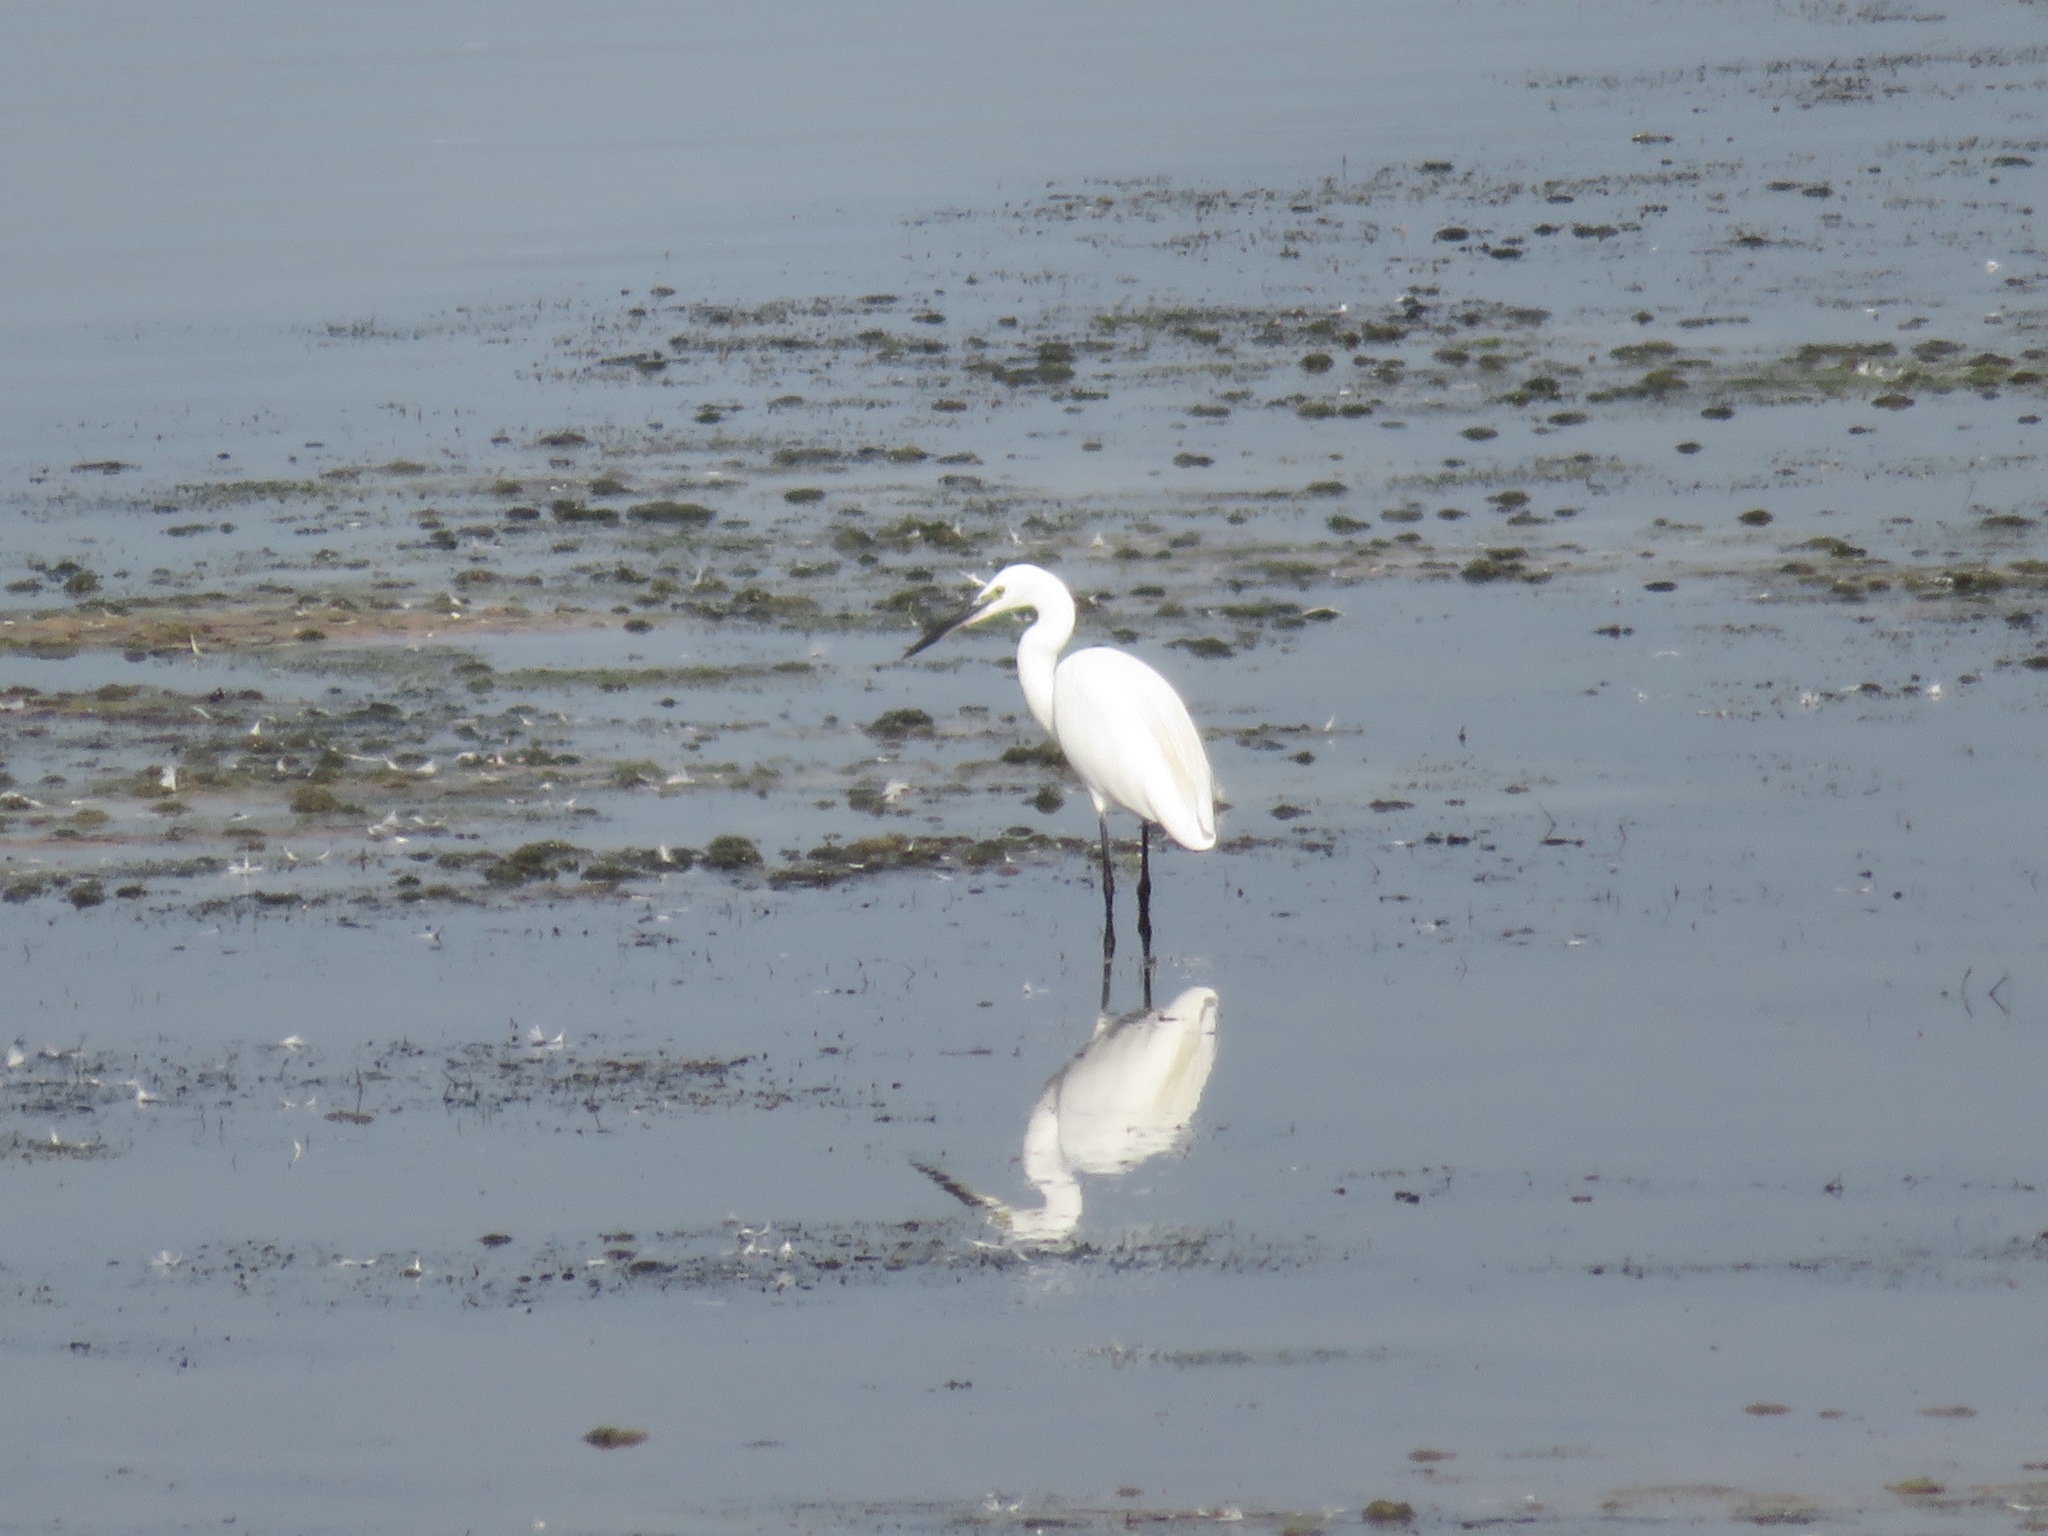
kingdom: Animalia
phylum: Chordata
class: Aves
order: Pelecaniformes
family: Ardeidae
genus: Egretta
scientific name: Egretta garzetta
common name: Little egret
